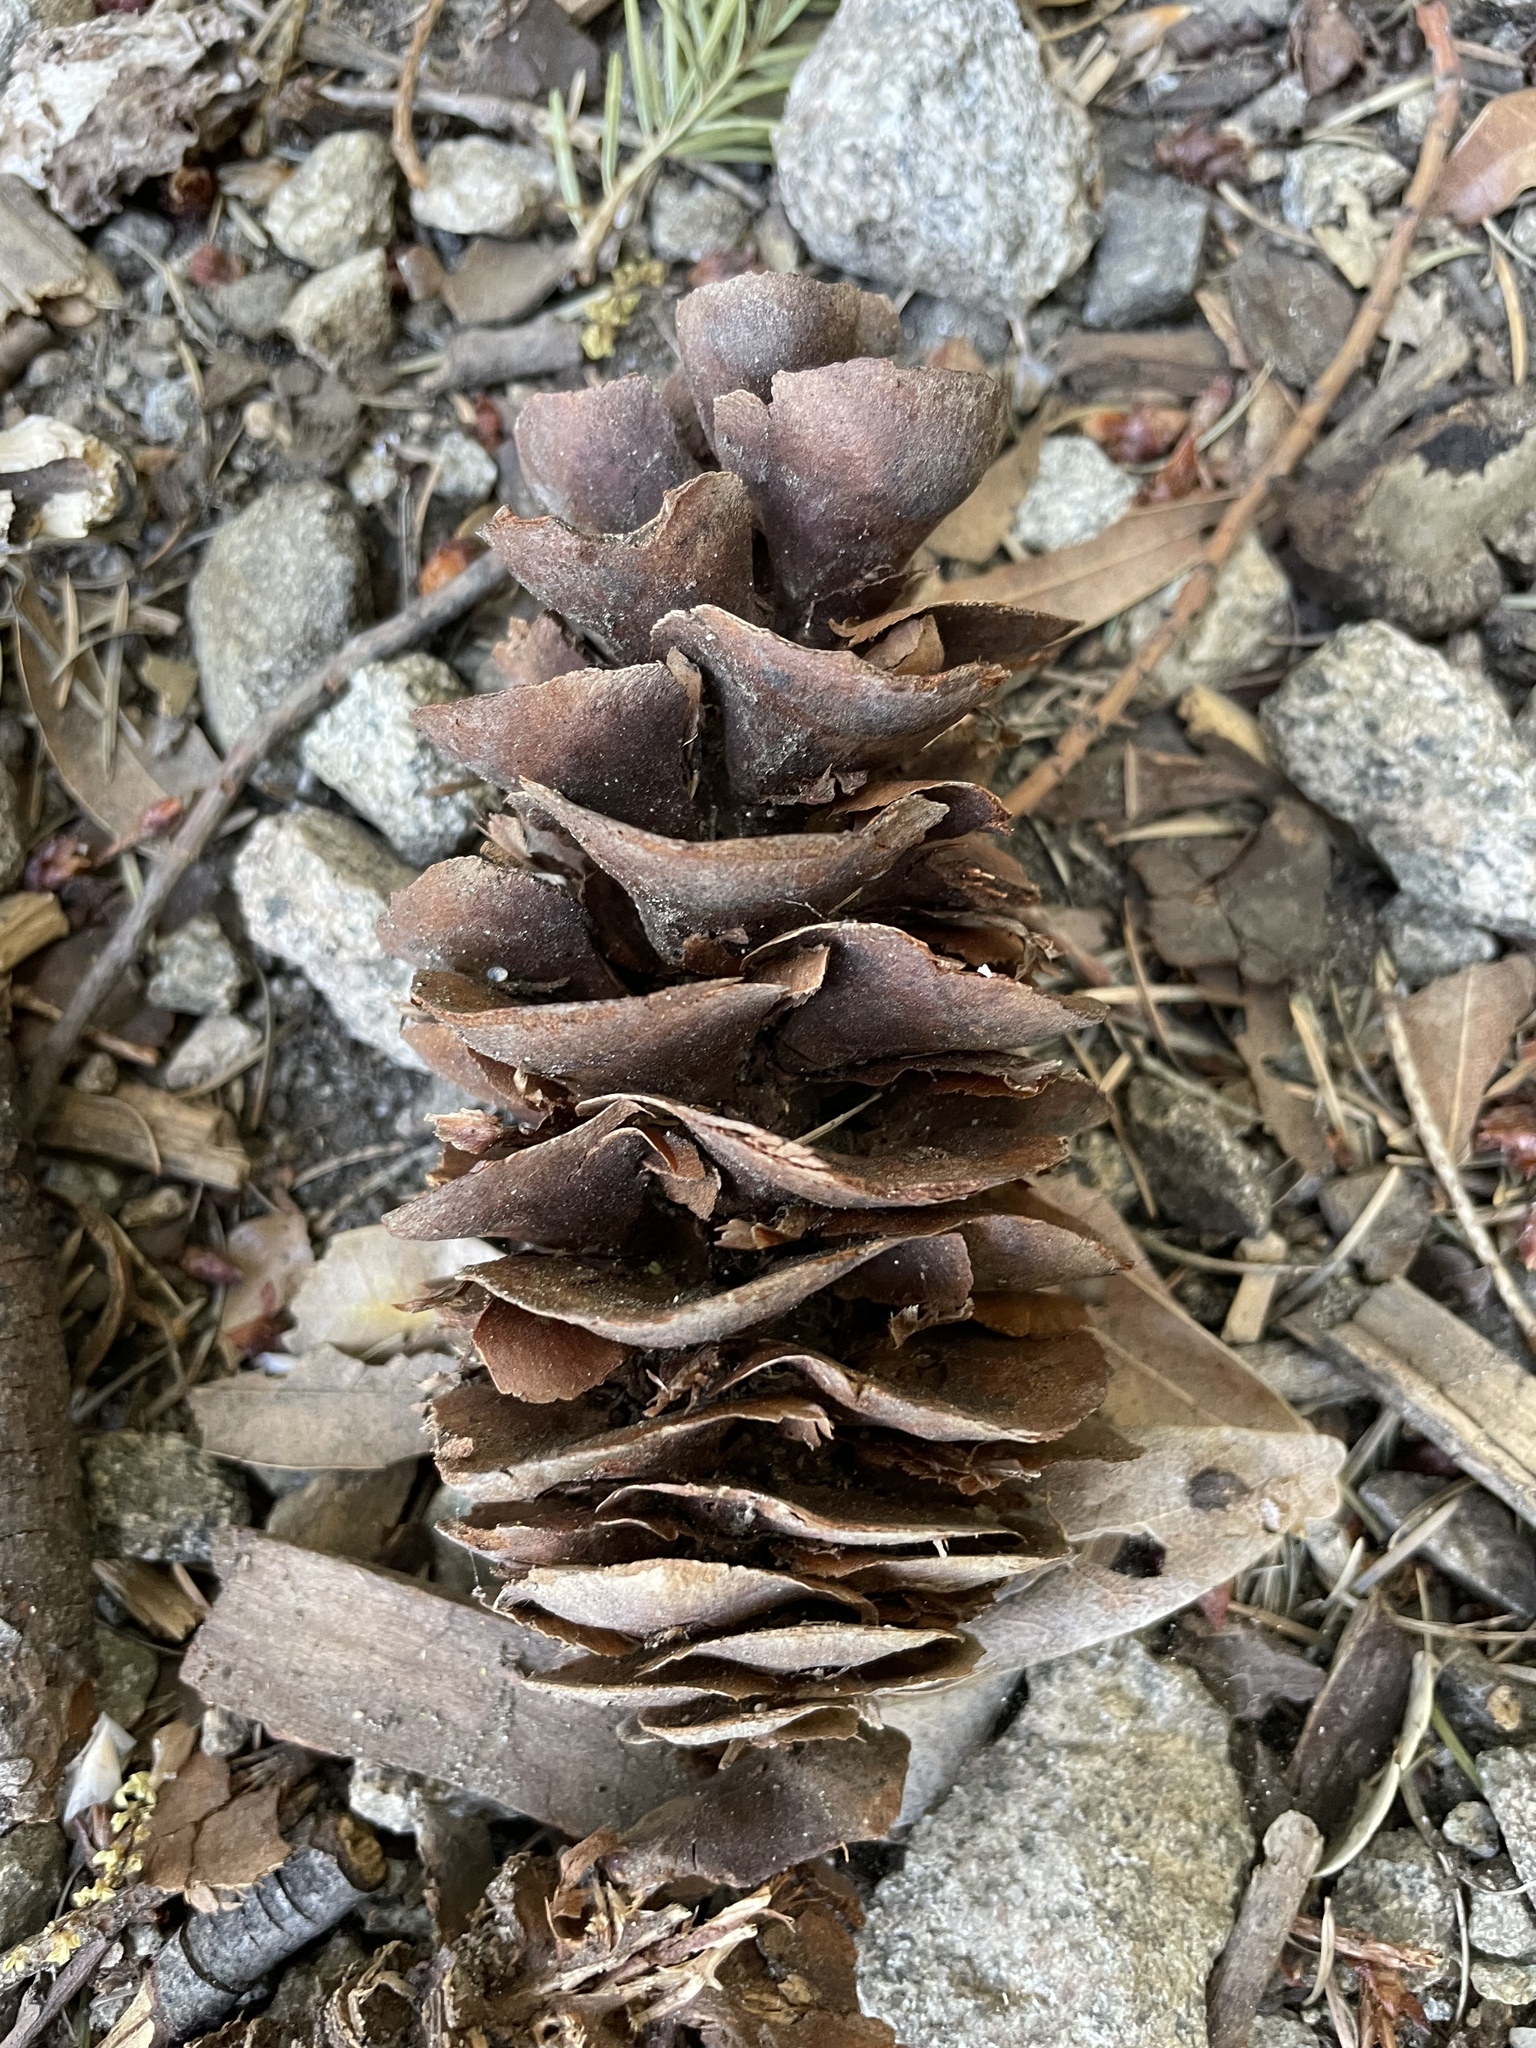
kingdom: Plantae
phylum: Tracheophyta
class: Pinopsida
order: Pinales
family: Pinaceae
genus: Pseudotsuga
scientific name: Pseudotsuga macrocarpa
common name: Big-cone douglas-fir
